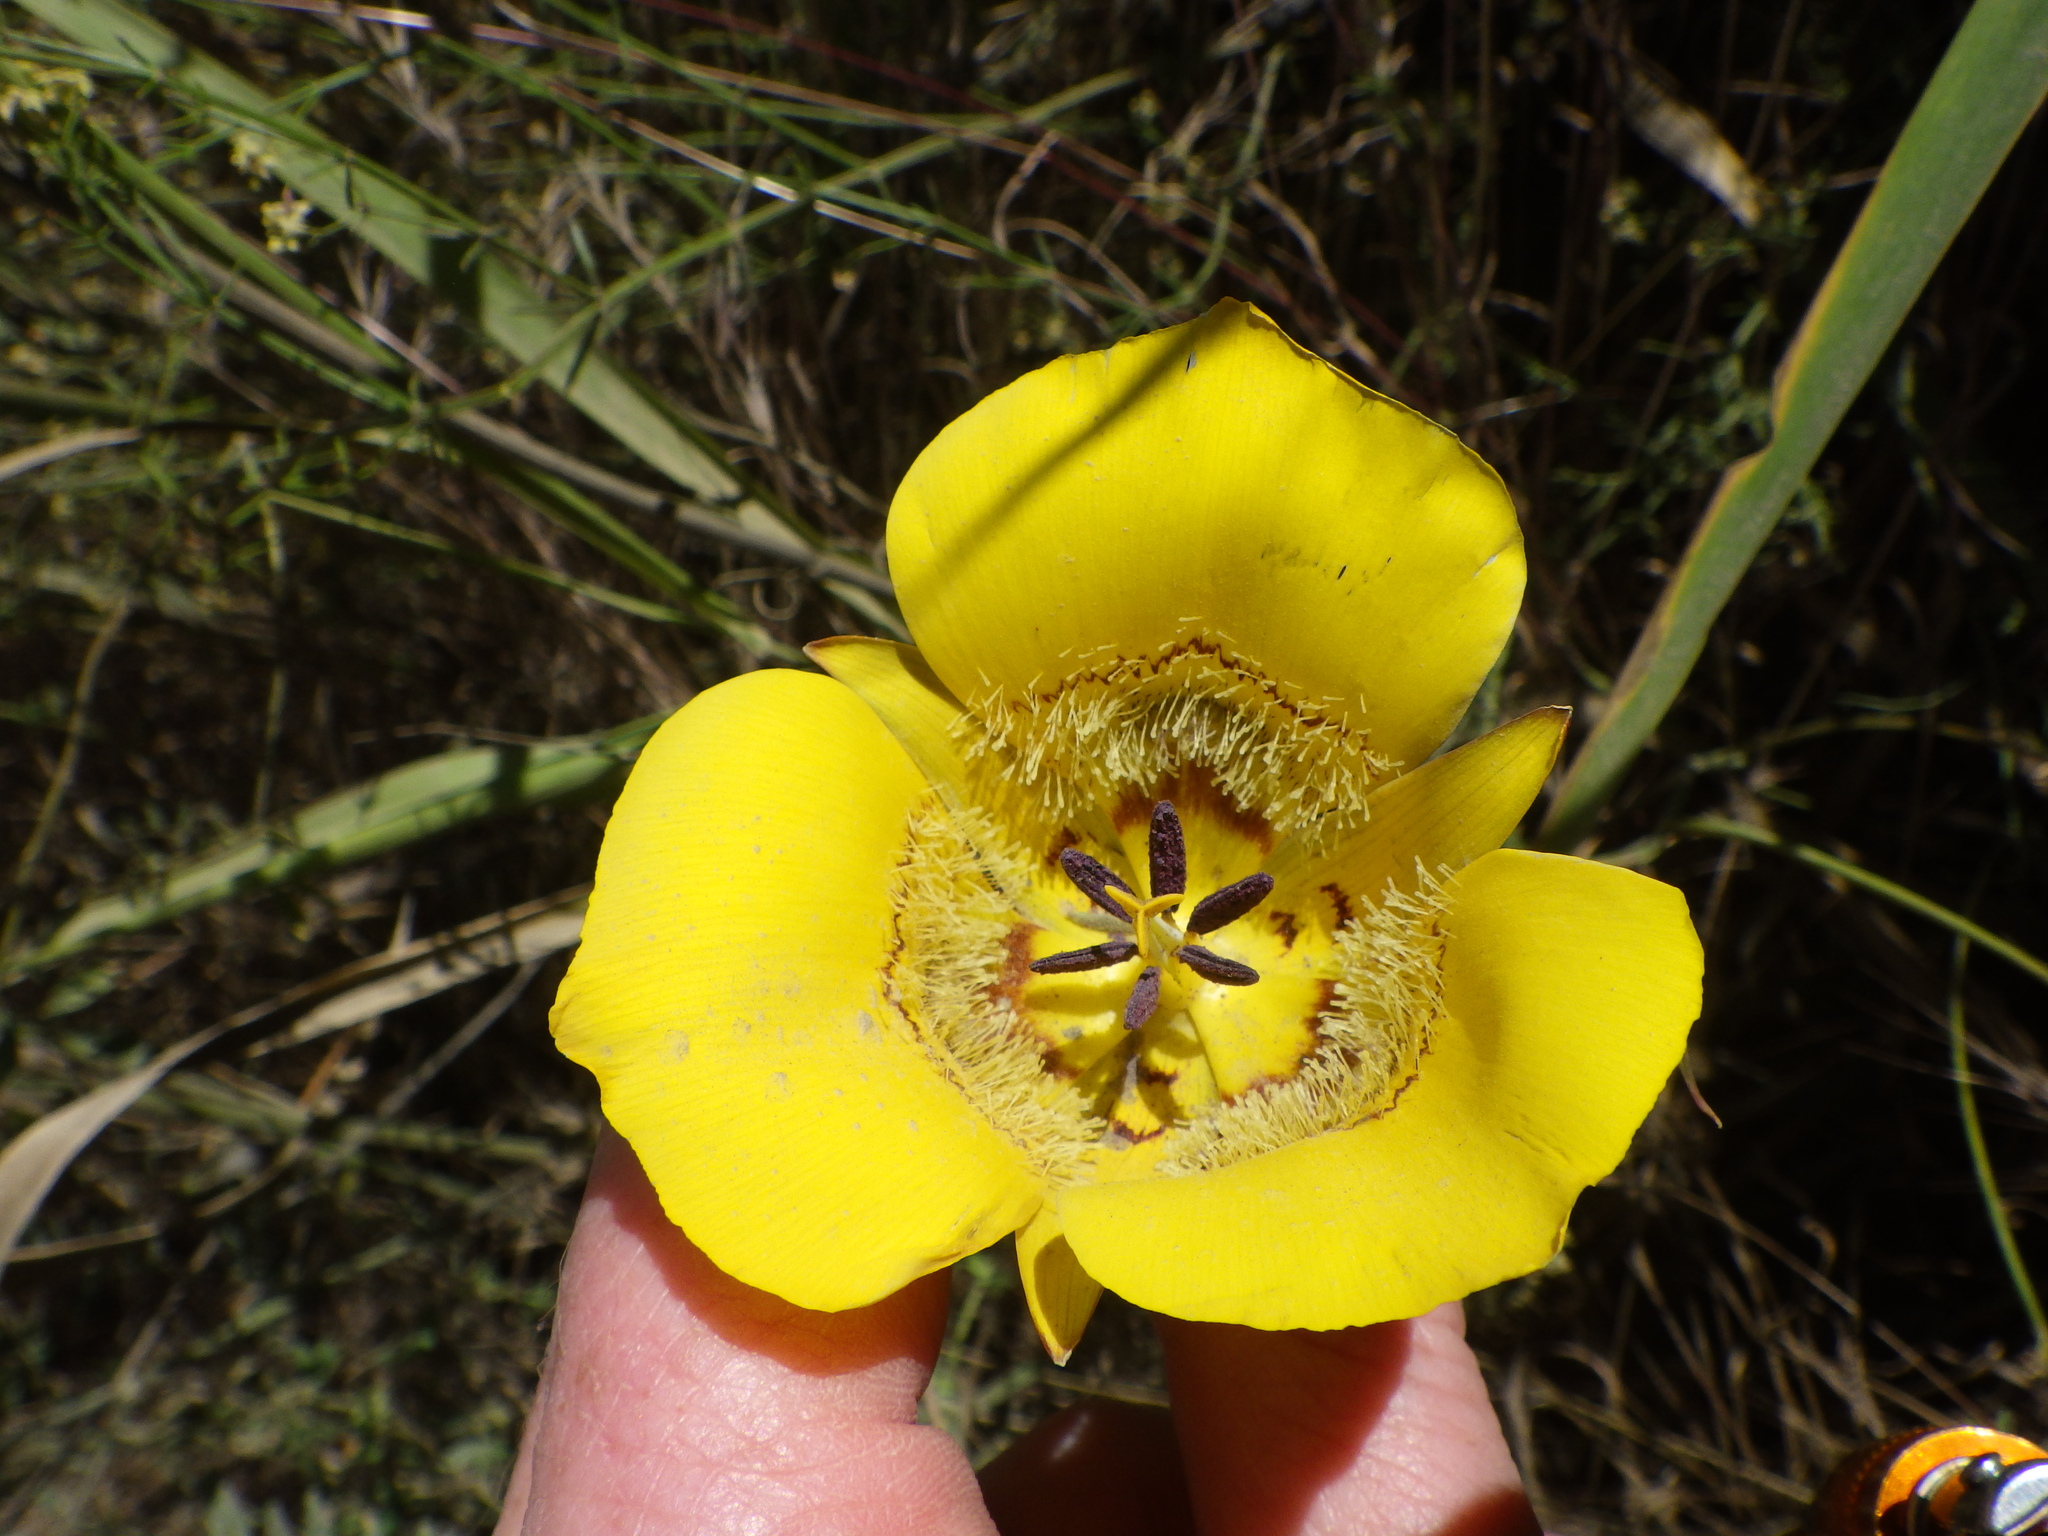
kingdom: Plantae
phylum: Tracheophyta
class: Liliopsida
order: Liliales
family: Liliaceae
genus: Calochortus
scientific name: Calochortus clavatus
